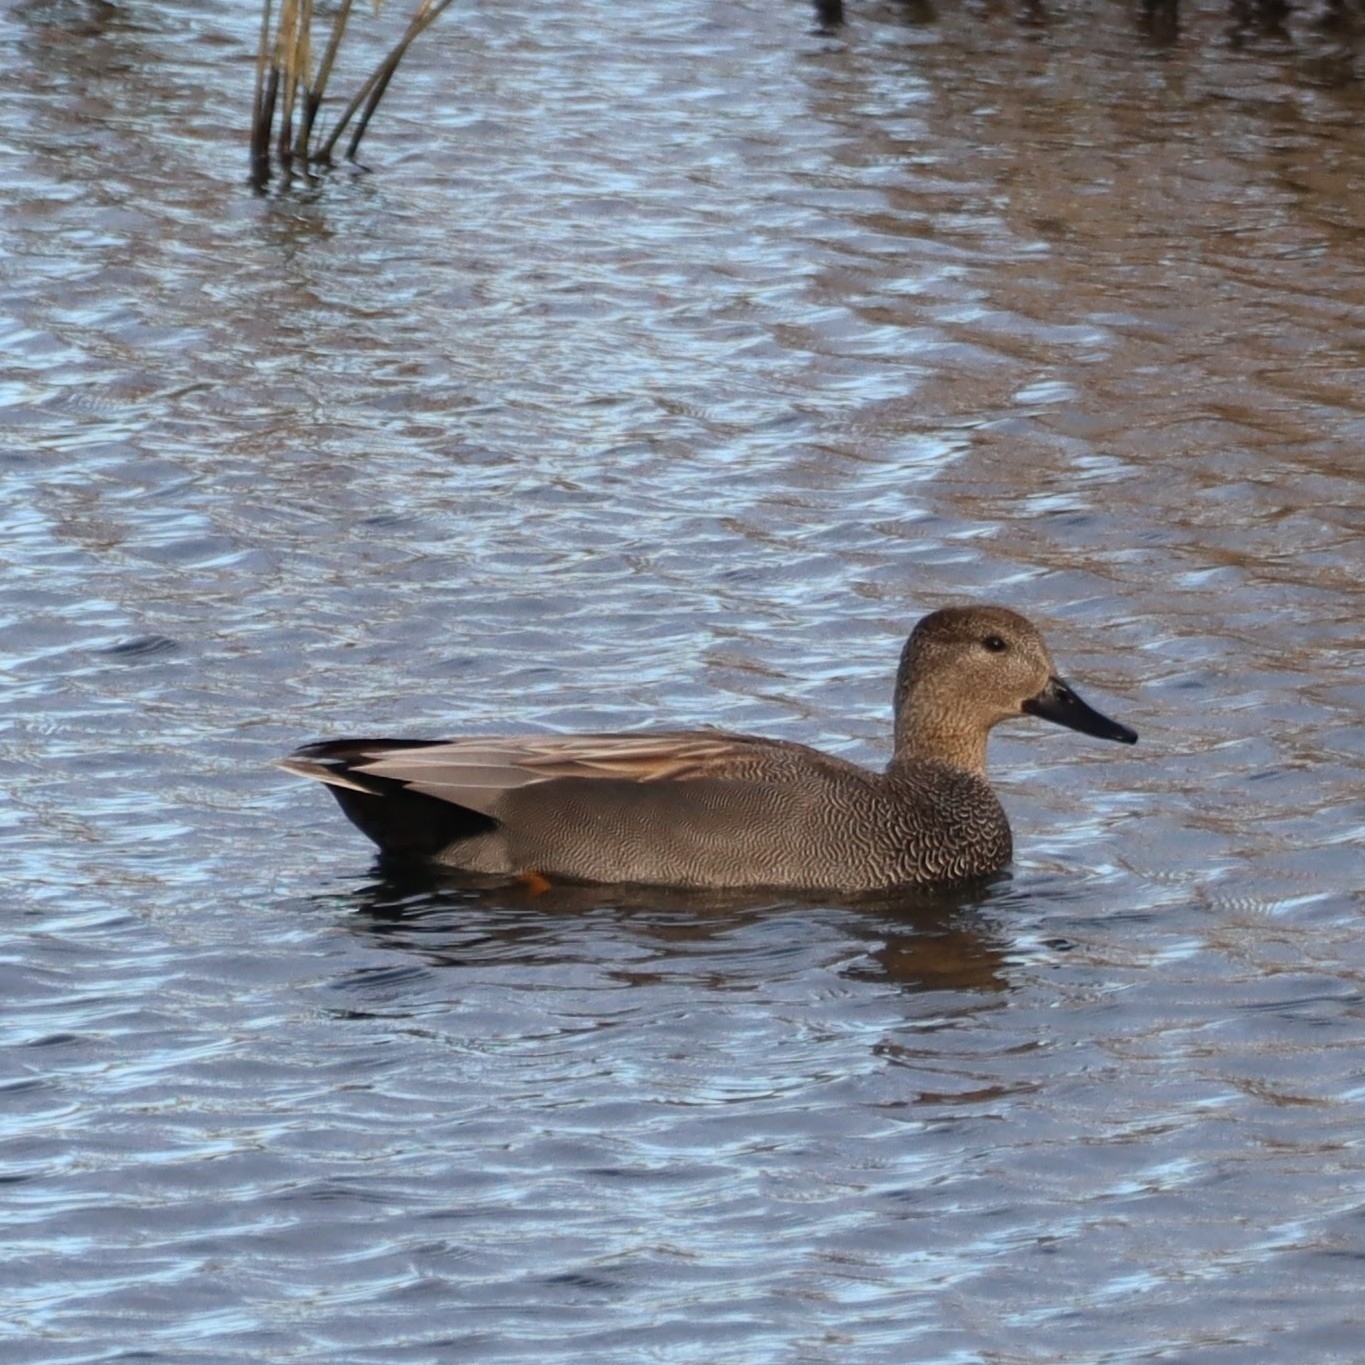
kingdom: Animalia
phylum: Chordata
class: Aves
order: Anseriformes
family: Anatidae
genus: Mareca
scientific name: Mareca strepera
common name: Gadwall
